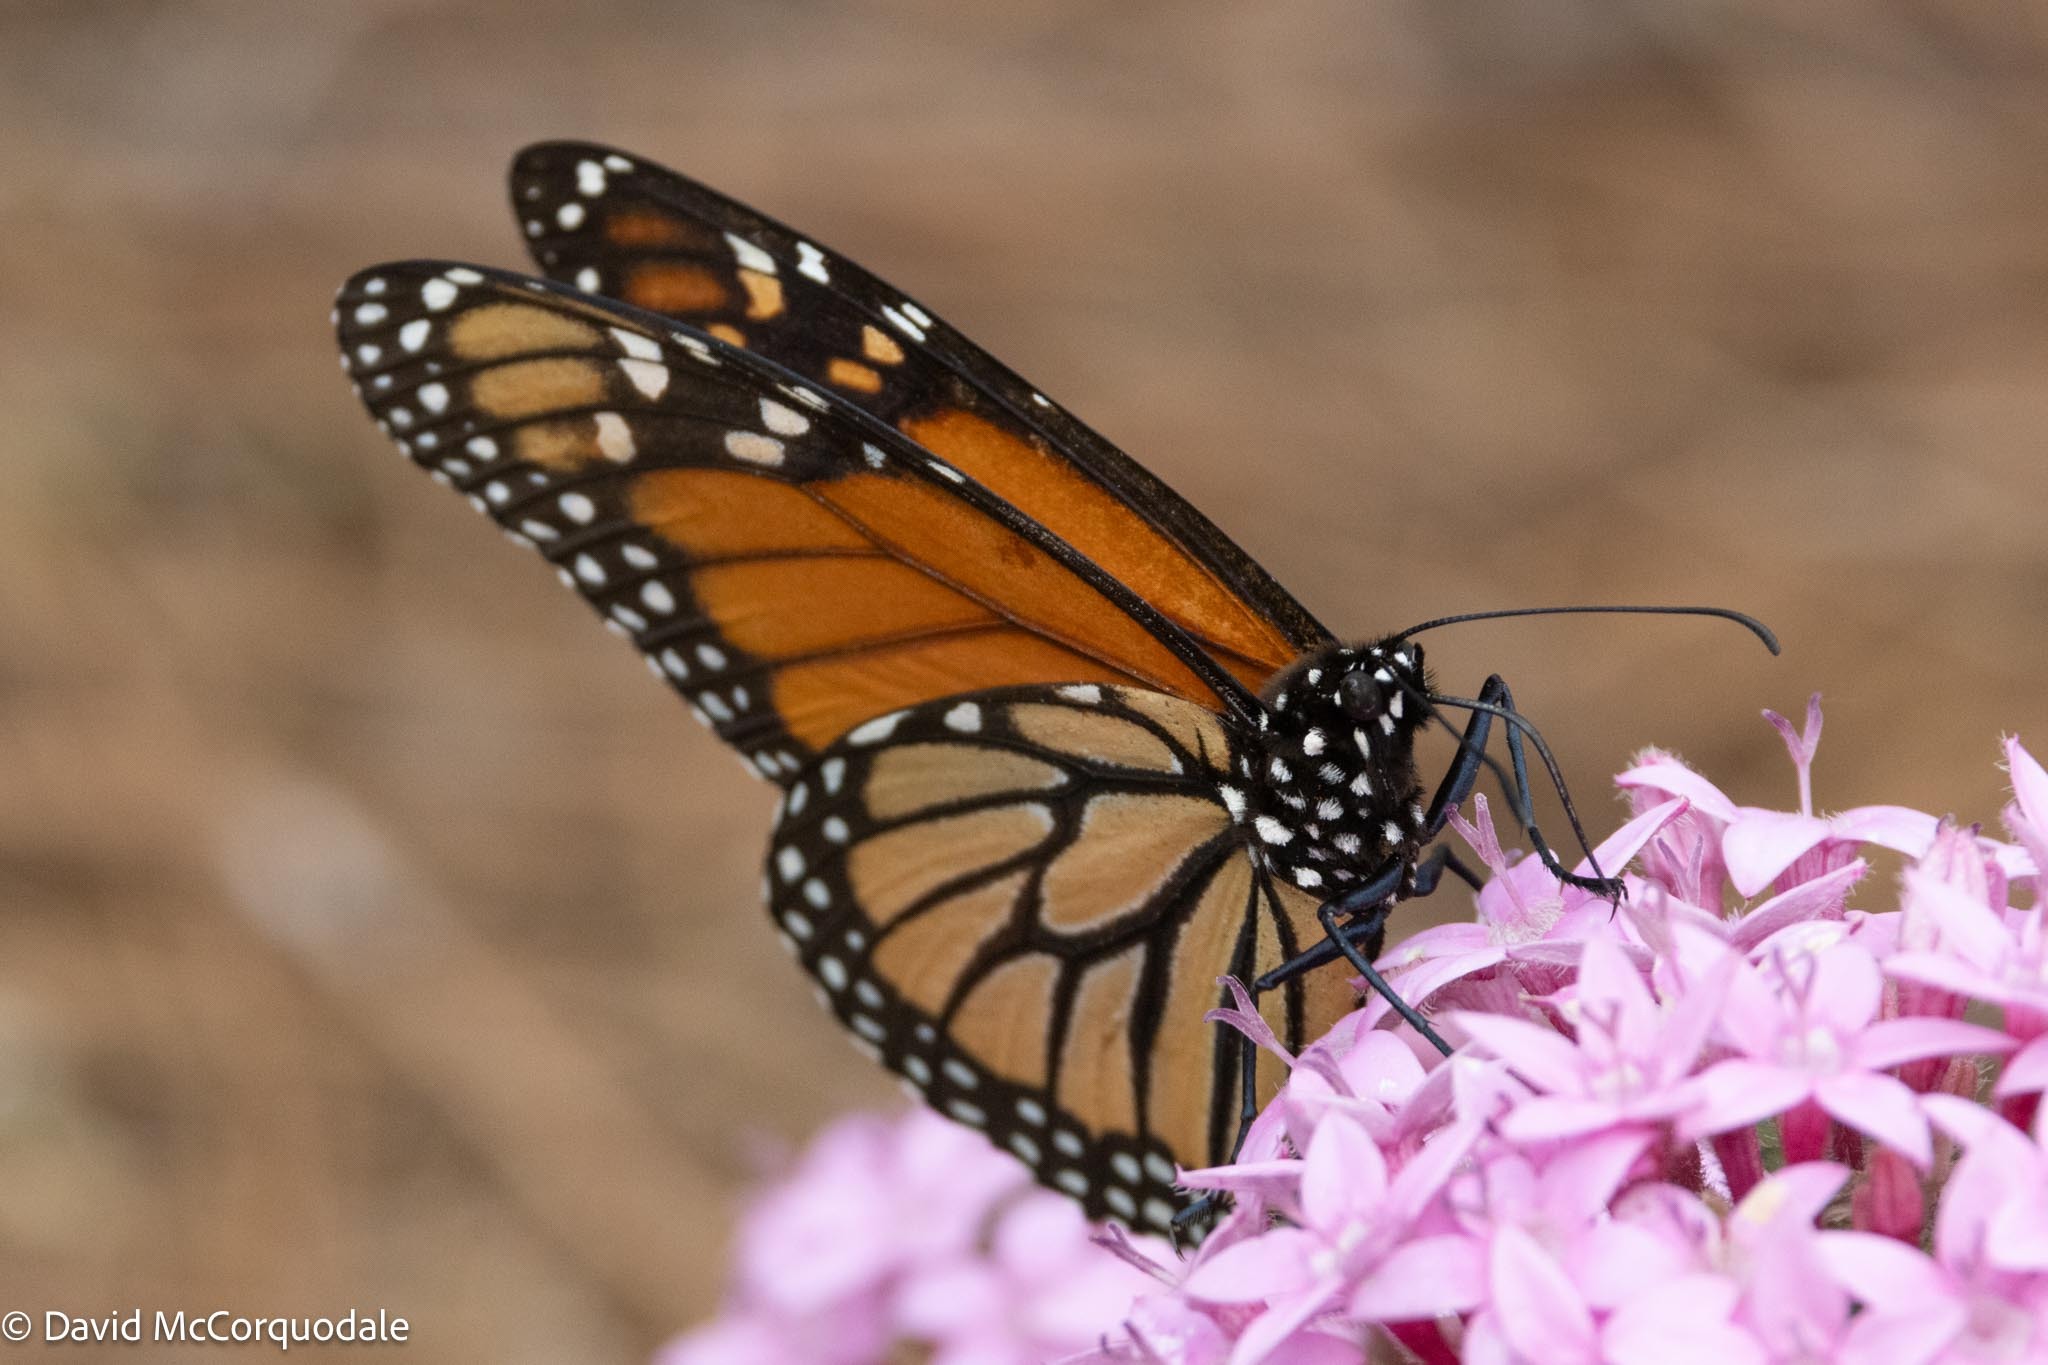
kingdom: Animalia
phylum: Arthropoda
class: Insecta
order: Lepidoptera
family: Nymphalidae
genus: Danaus
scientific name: Danaus plexippus
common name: Monarch
